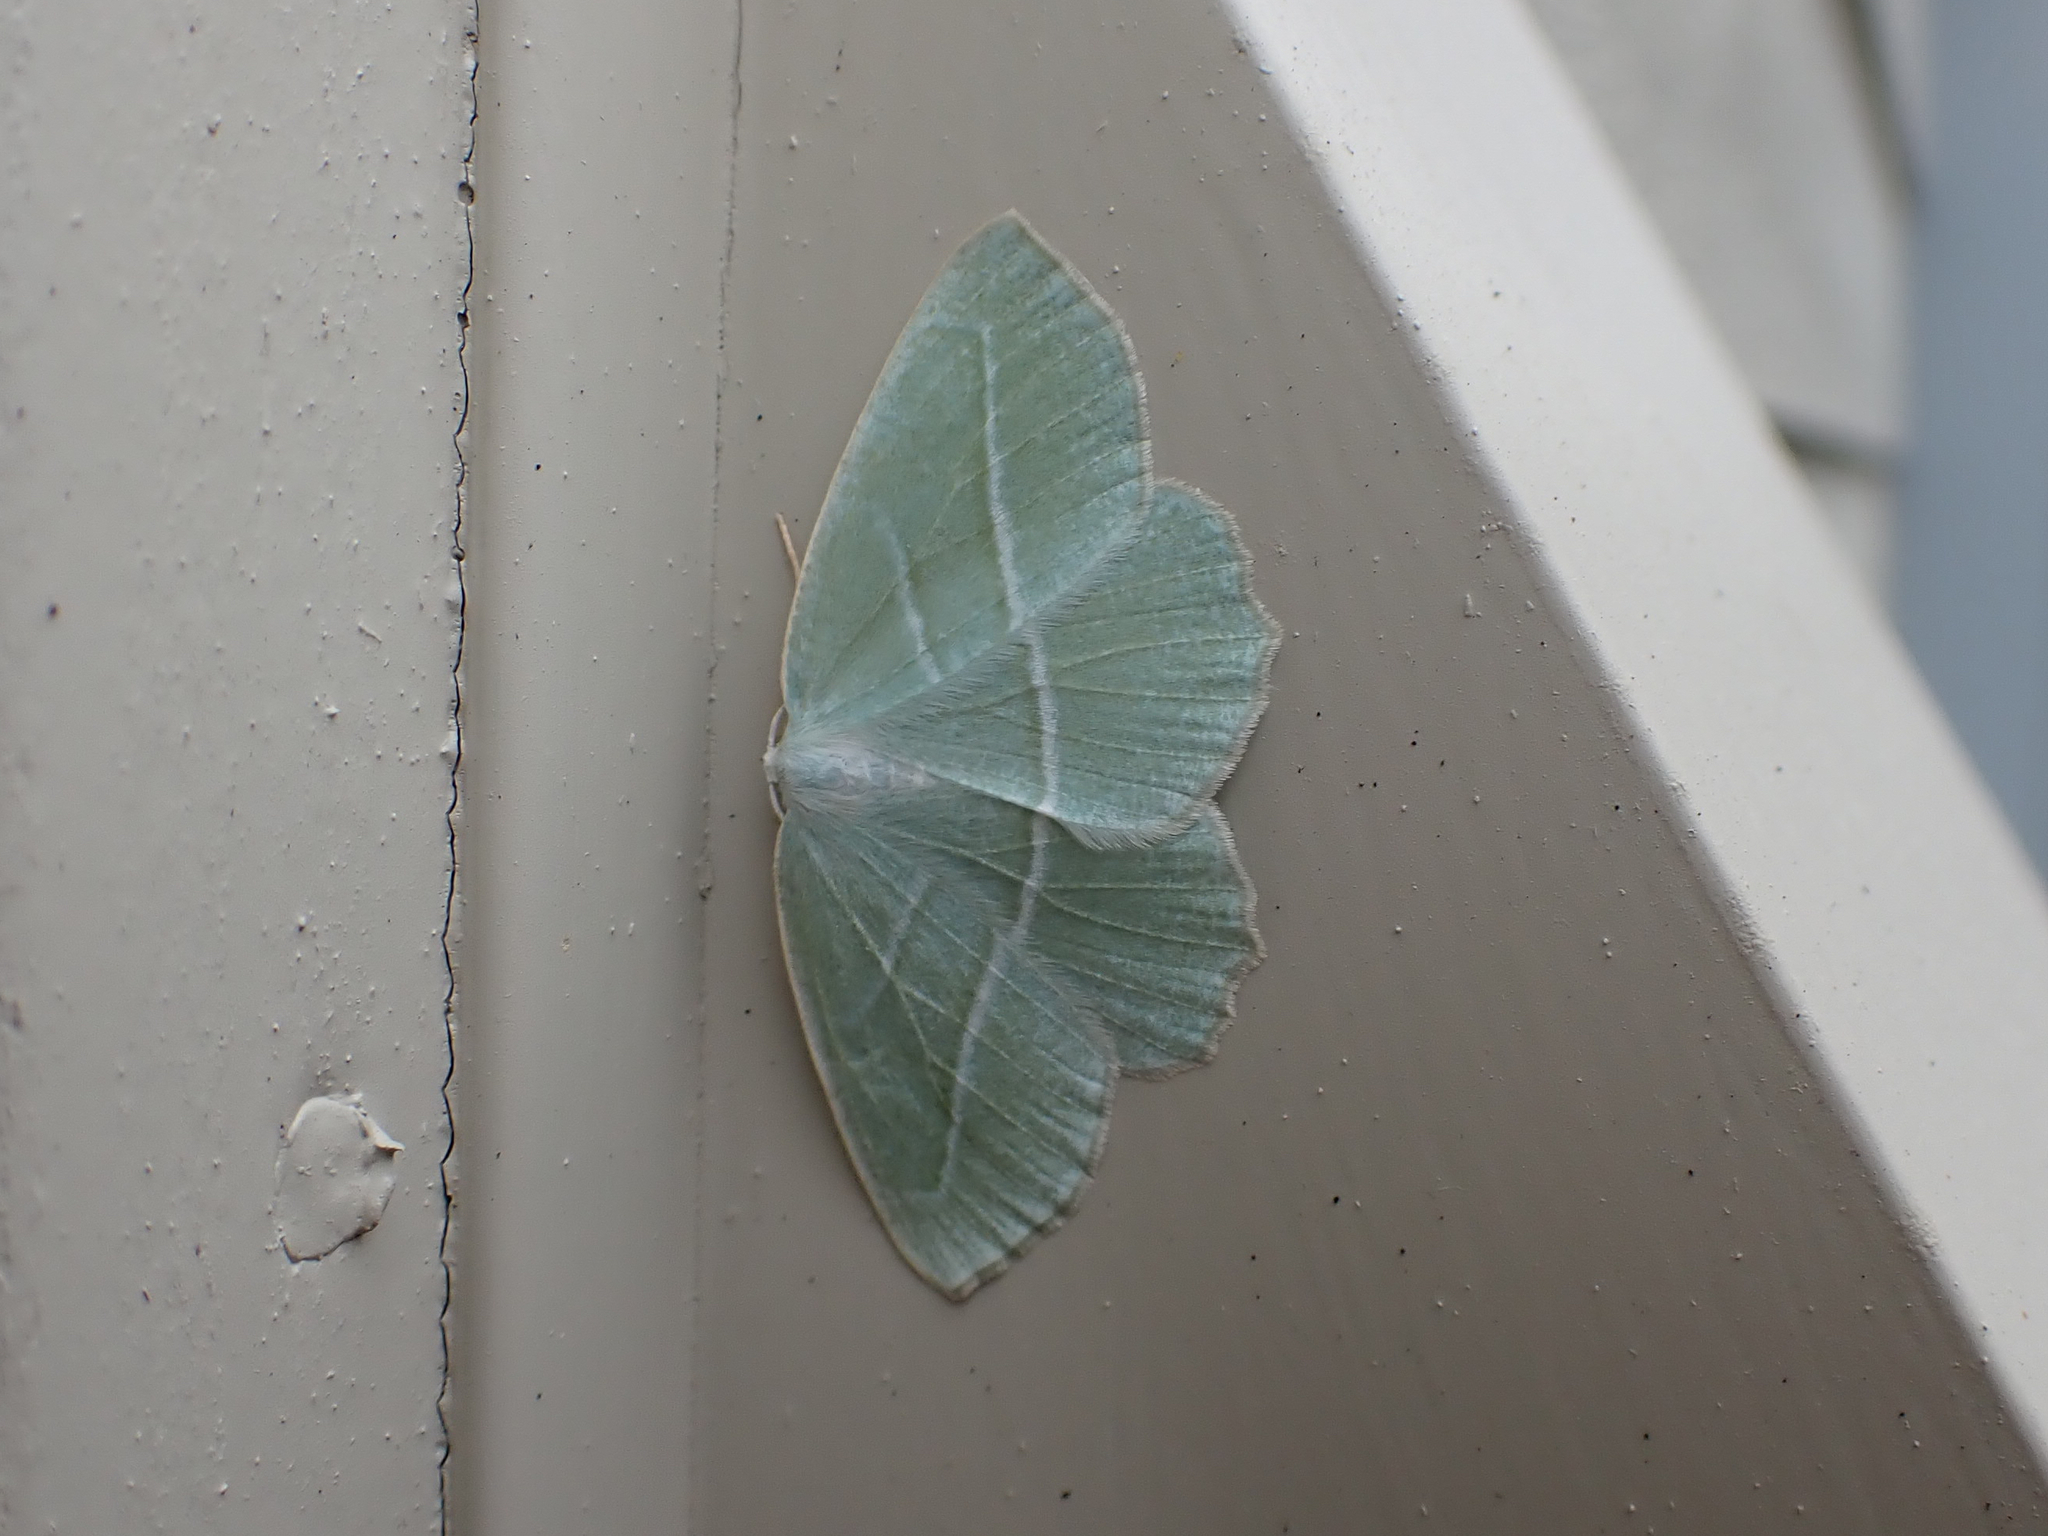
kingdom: Animalia
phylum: Arthropoda
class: Insecta
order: Lepidoptera
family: Geometridae
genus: Campaea
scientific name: Campaea perlata
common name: Fringed looper
